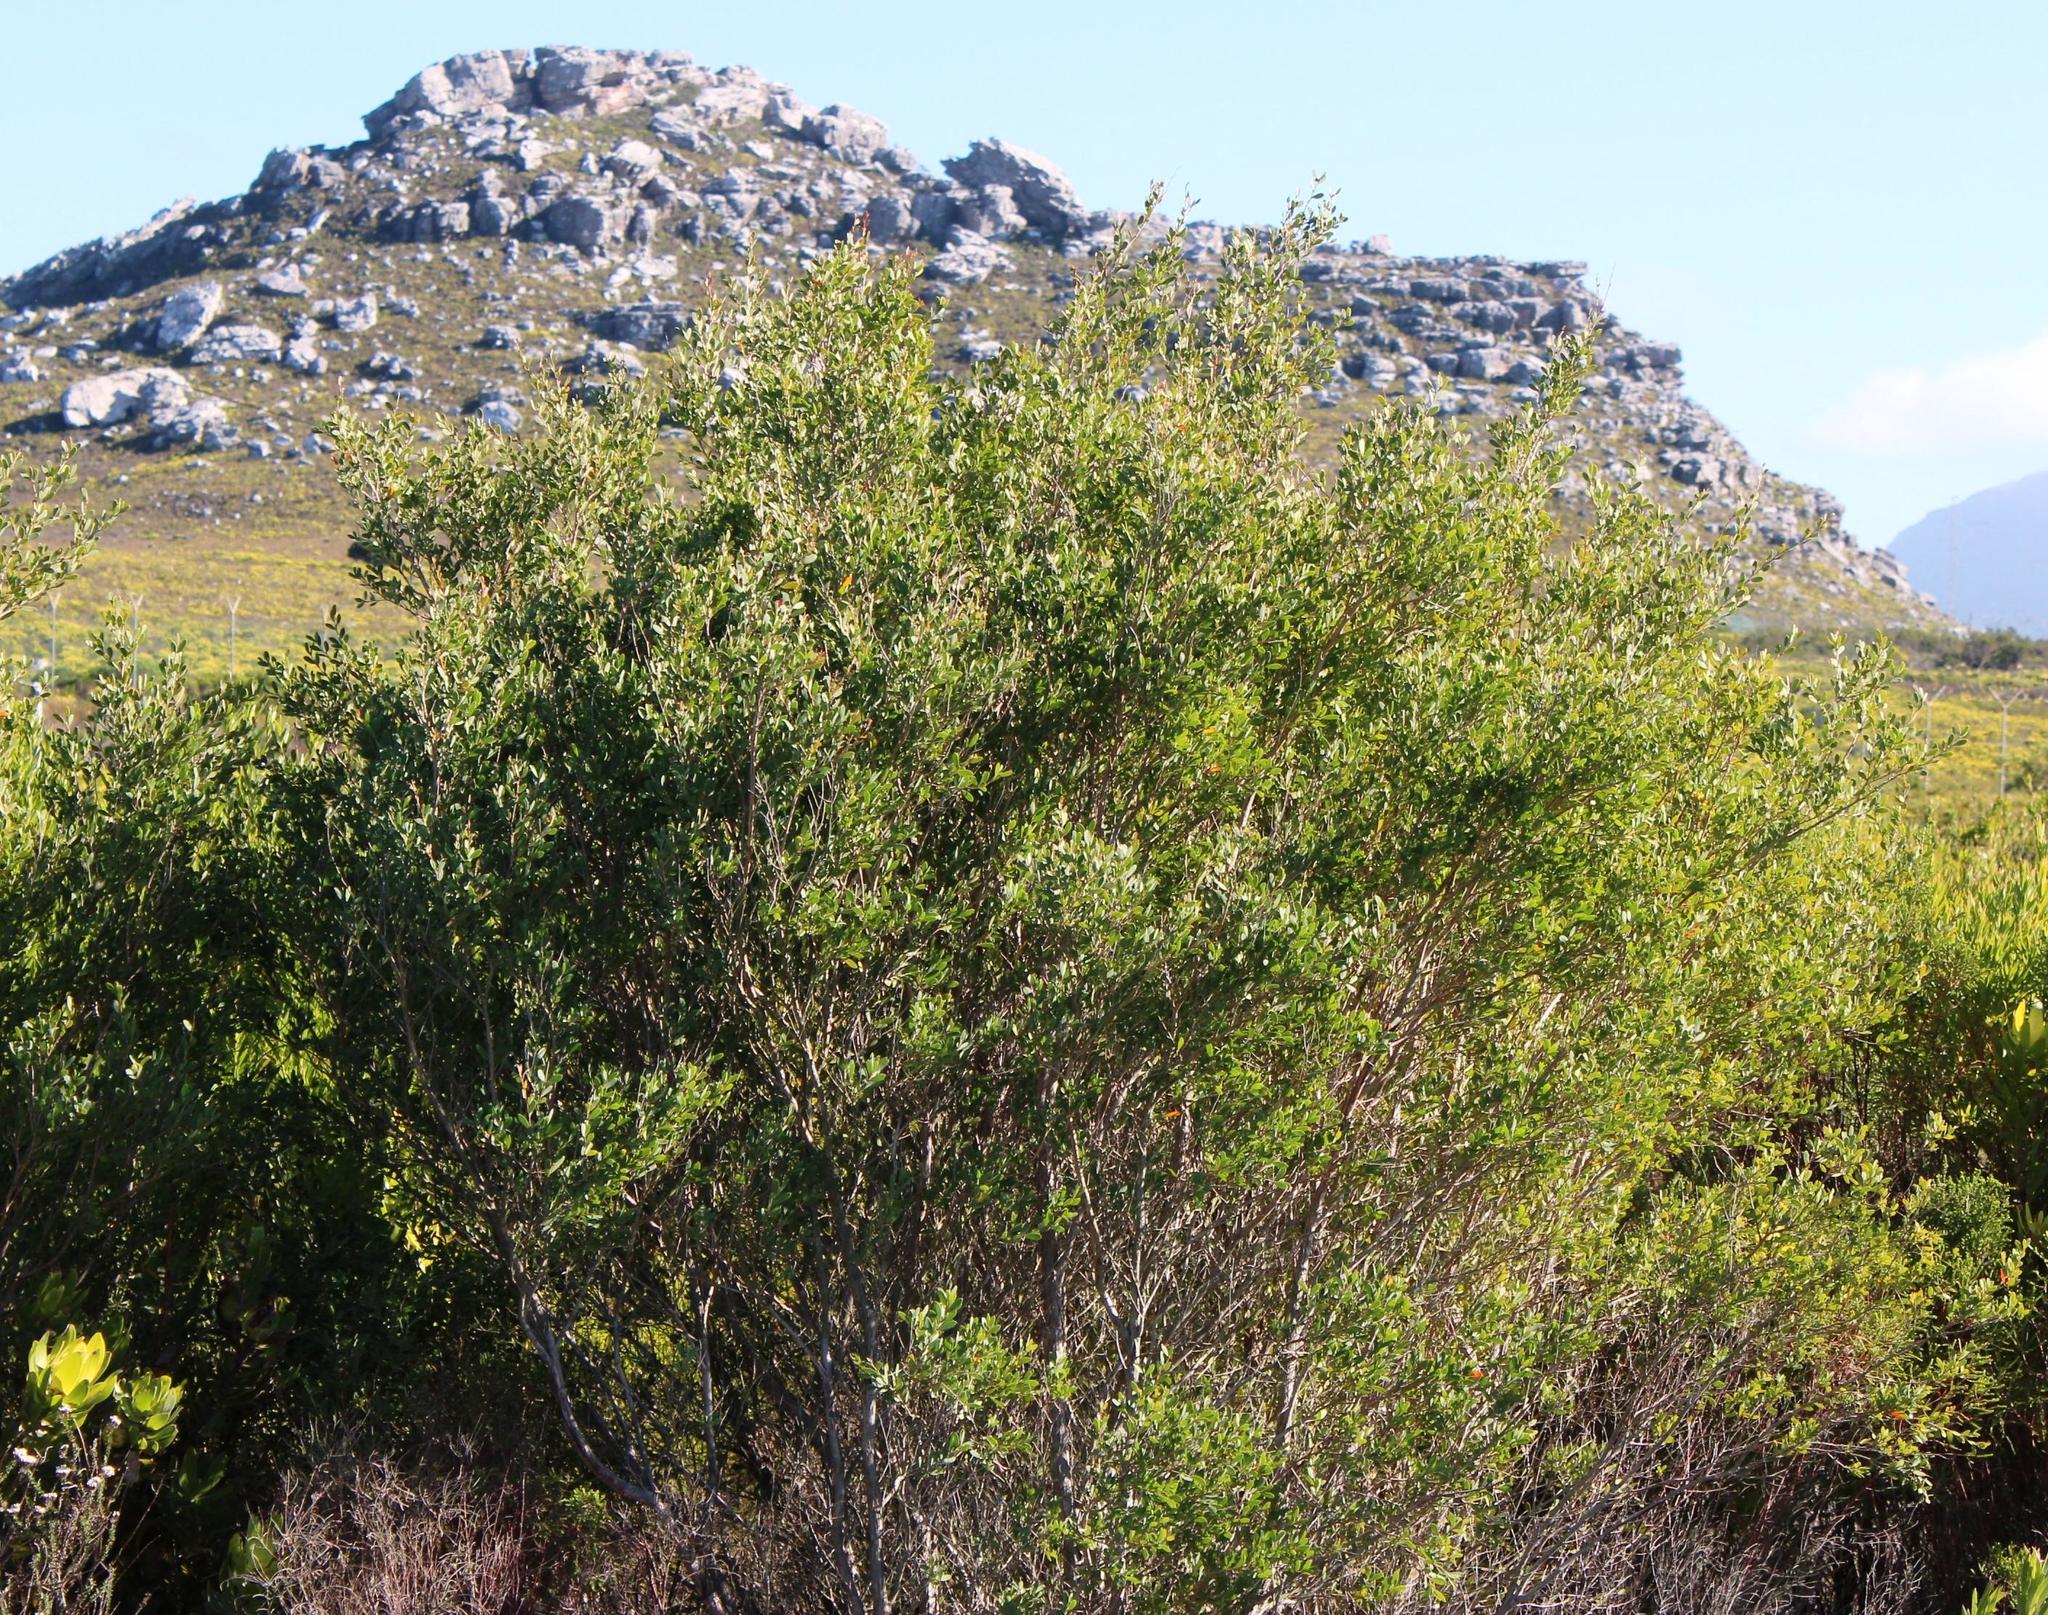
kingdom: Plantae
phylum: Tracheophyta
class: Magnoliopsida
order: Myrtales
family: Myrtaceae
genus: Leptospermum
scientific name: Leptospermum laevigatum
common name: Australian teatree
